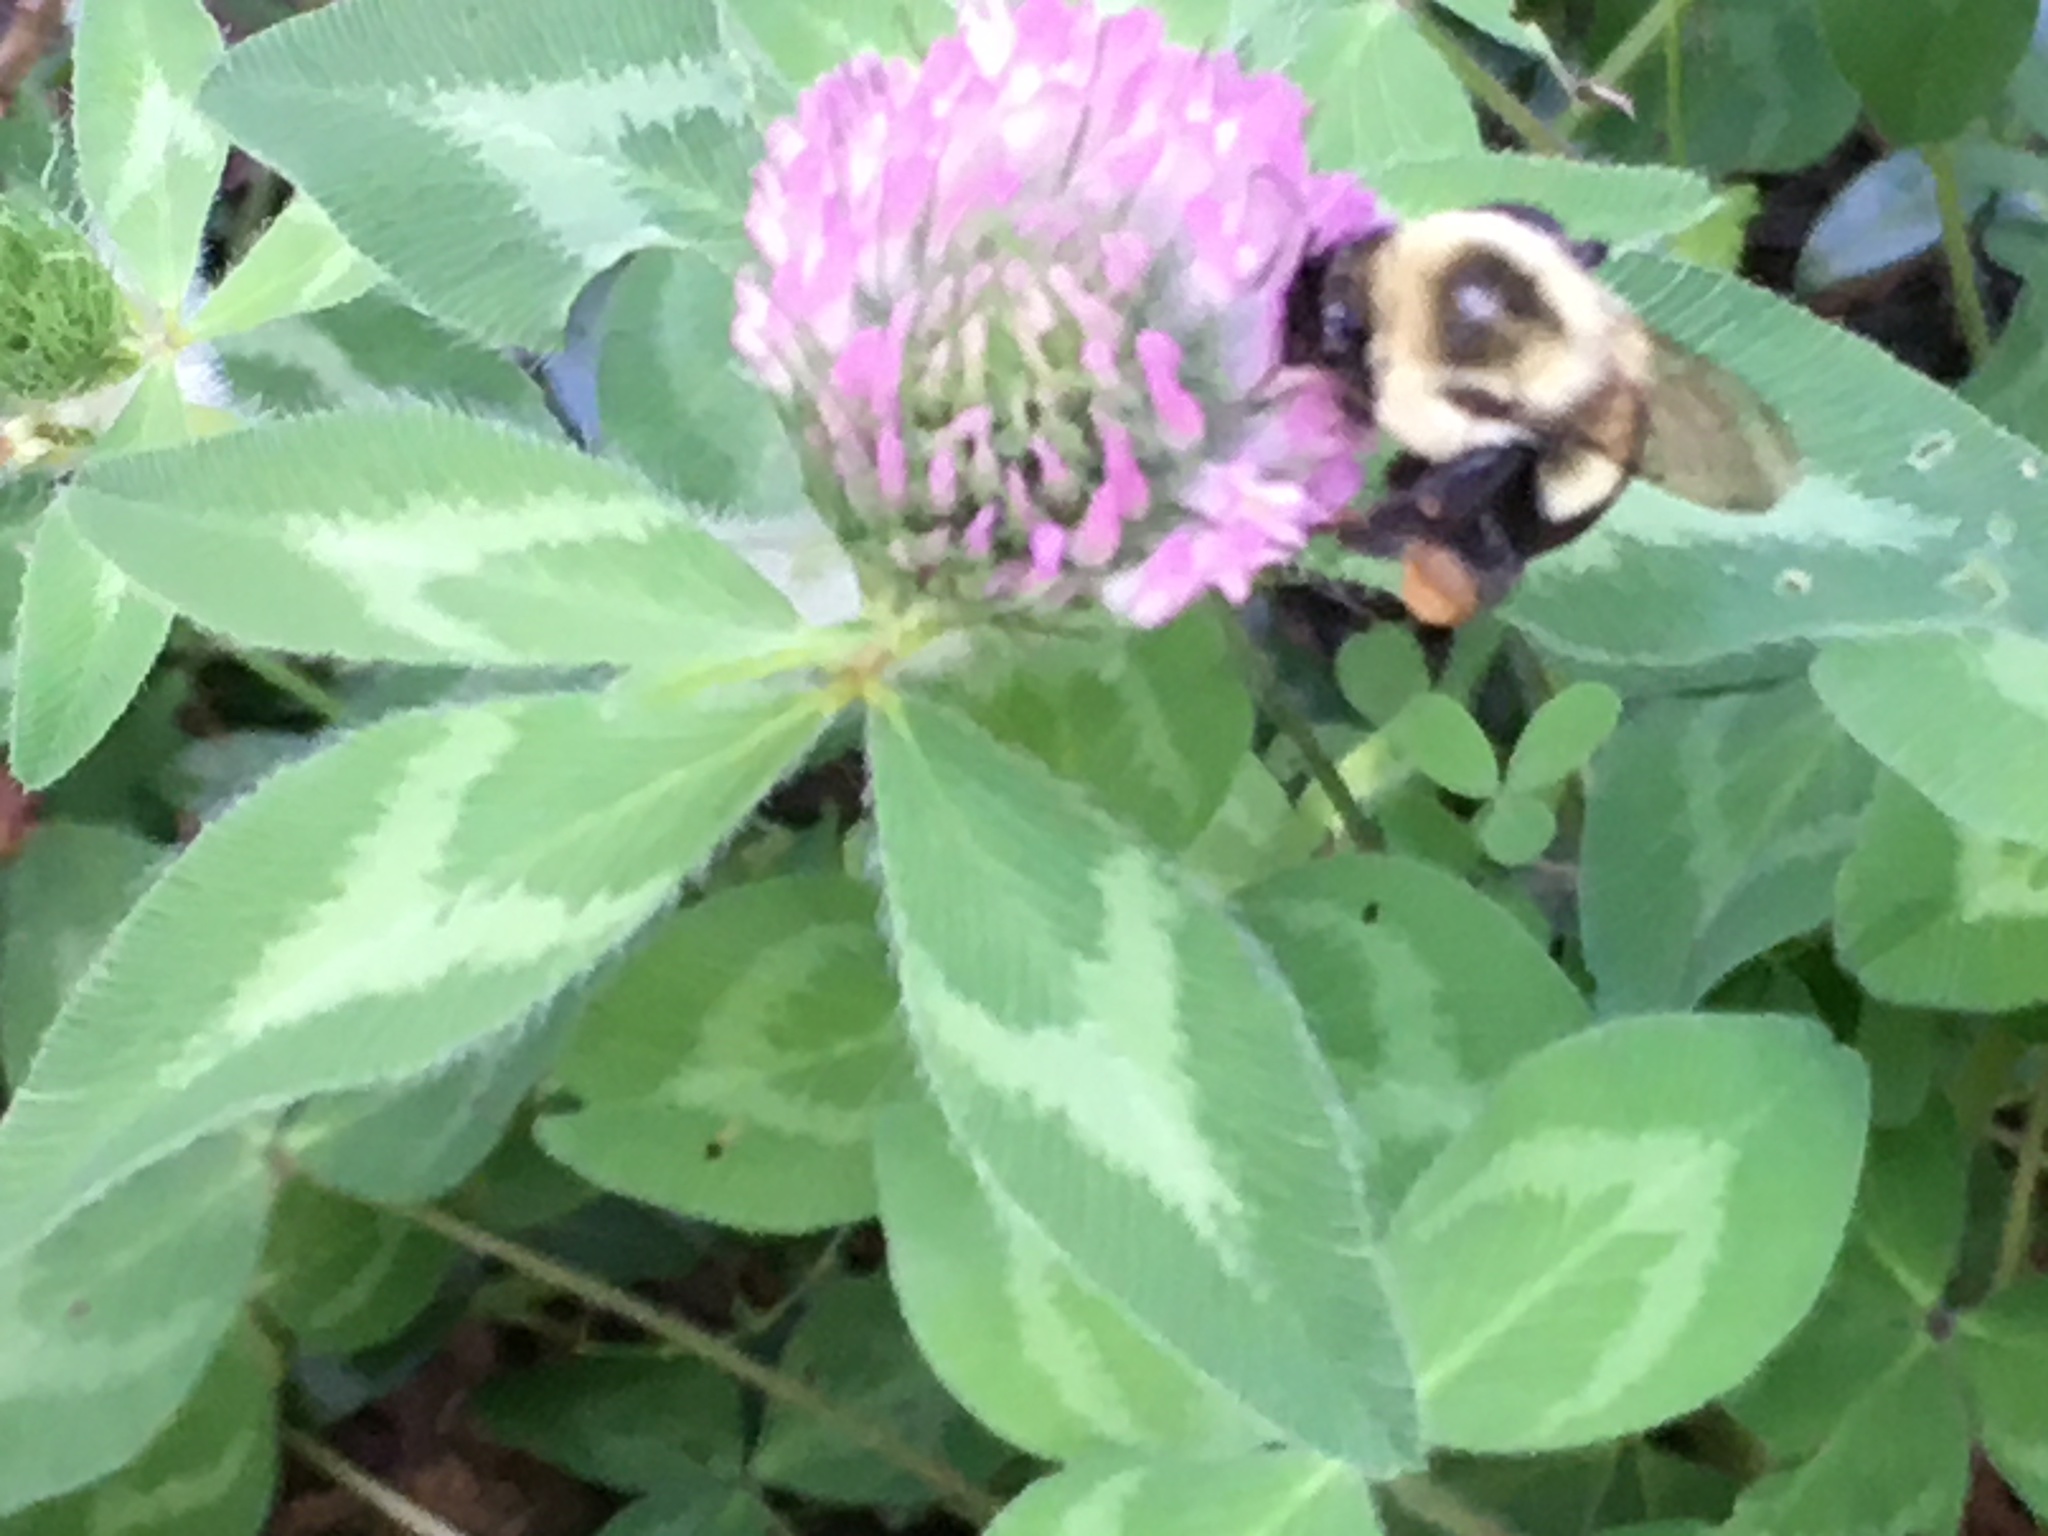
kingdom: Animalia
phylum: Arthropoda
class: Insecta
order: Hymenoptera
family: Apidae
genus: Bombus
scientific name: Bombus impatiens
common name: Common eastern bumble bee
